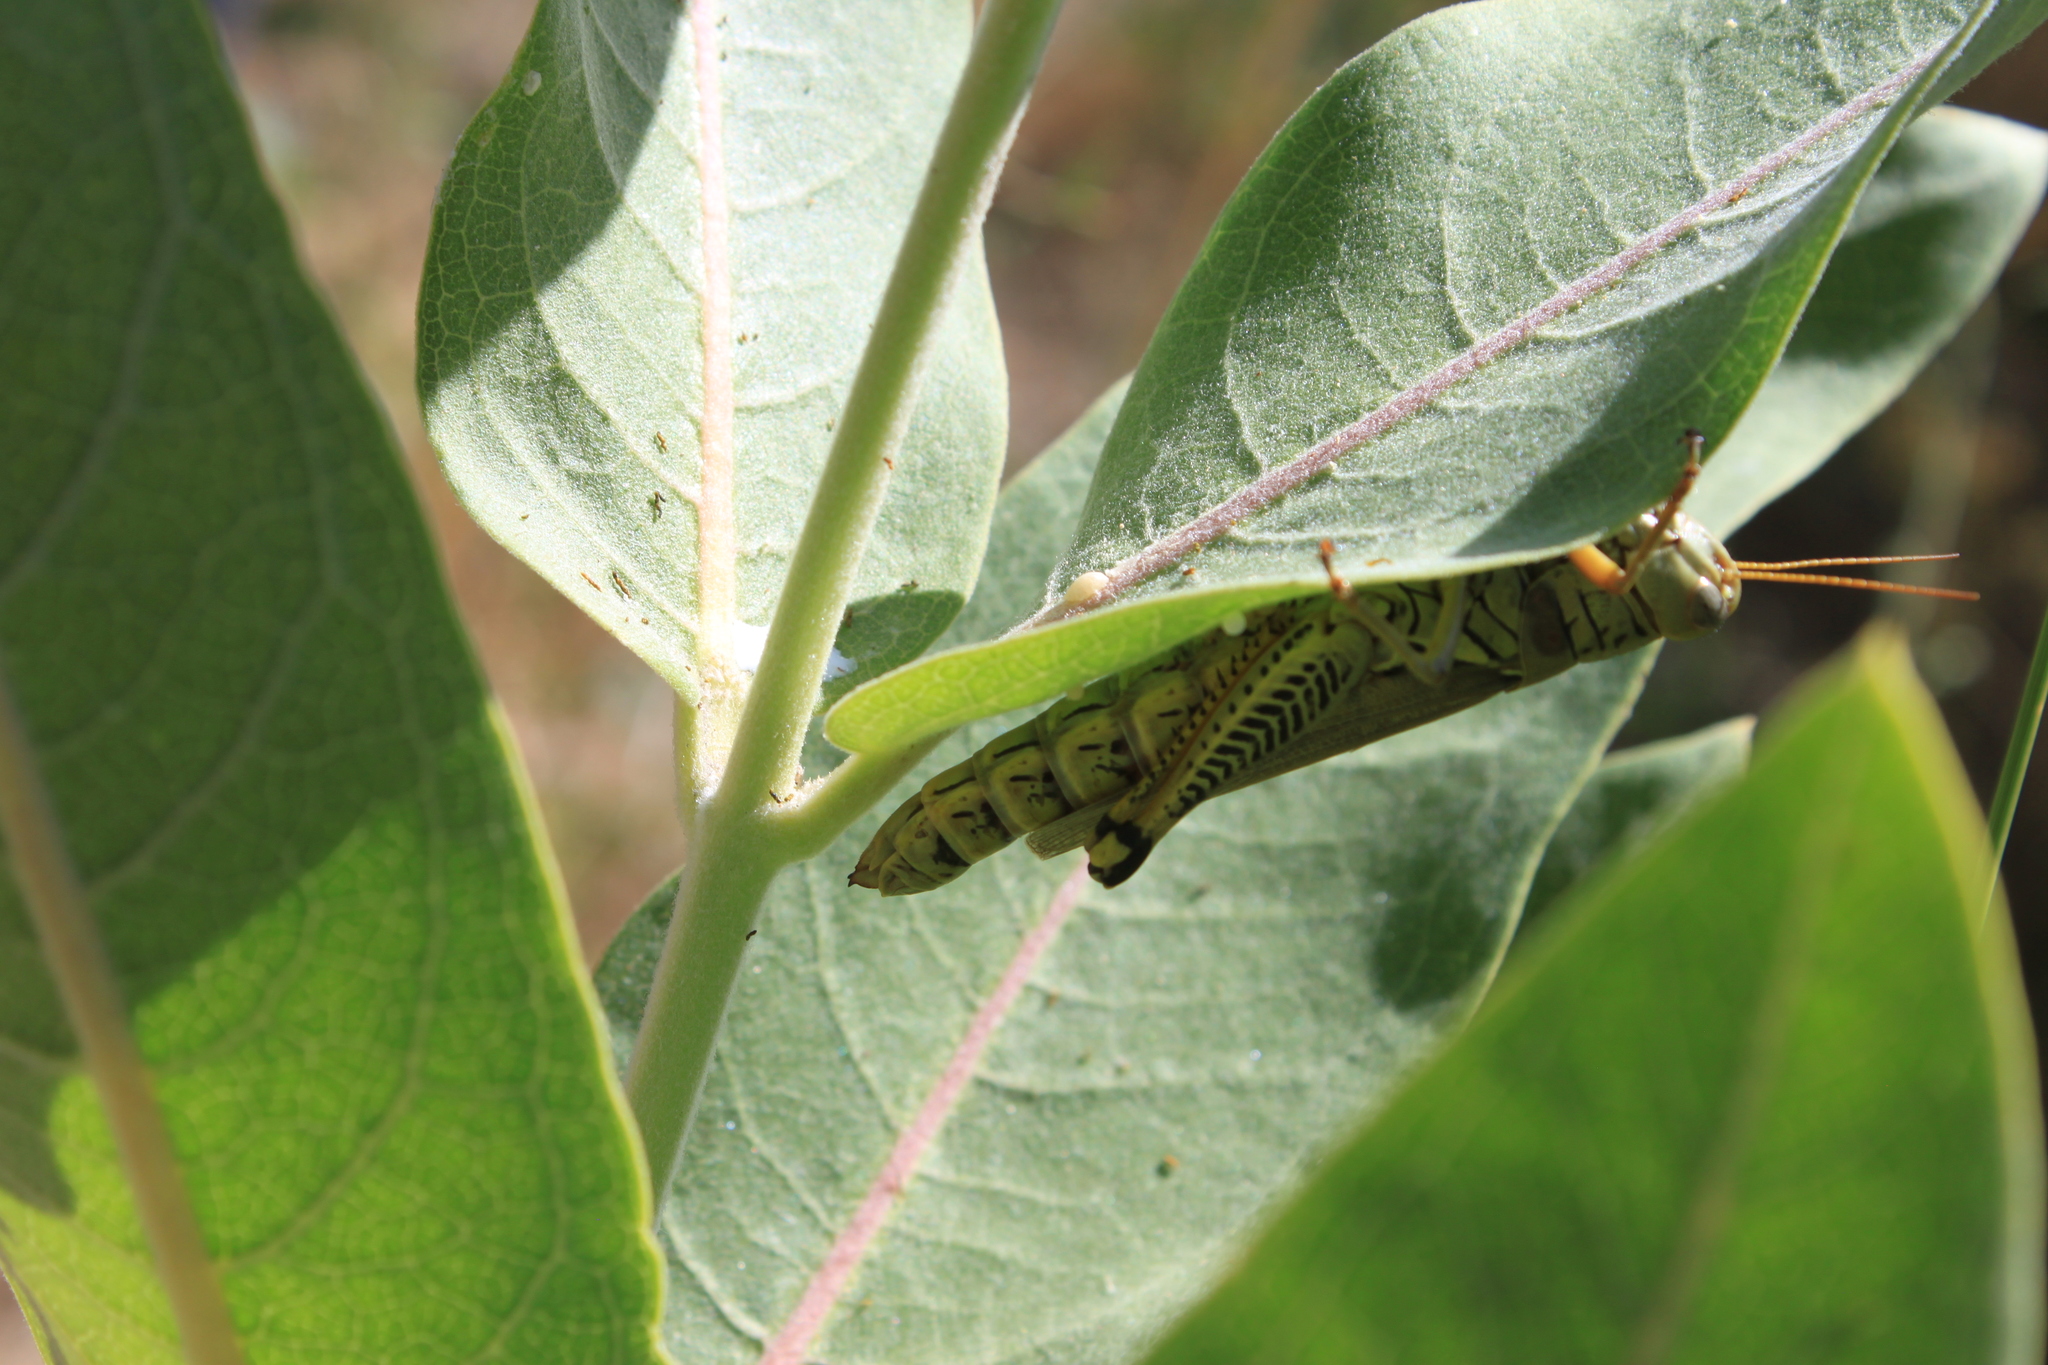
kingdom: Animalia
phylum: Arthropoda
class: Insecta
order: Orthoptera
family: Acrididae
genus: Melanoplus
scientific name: Melanoplus differentialis
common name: Differential grasshopper
